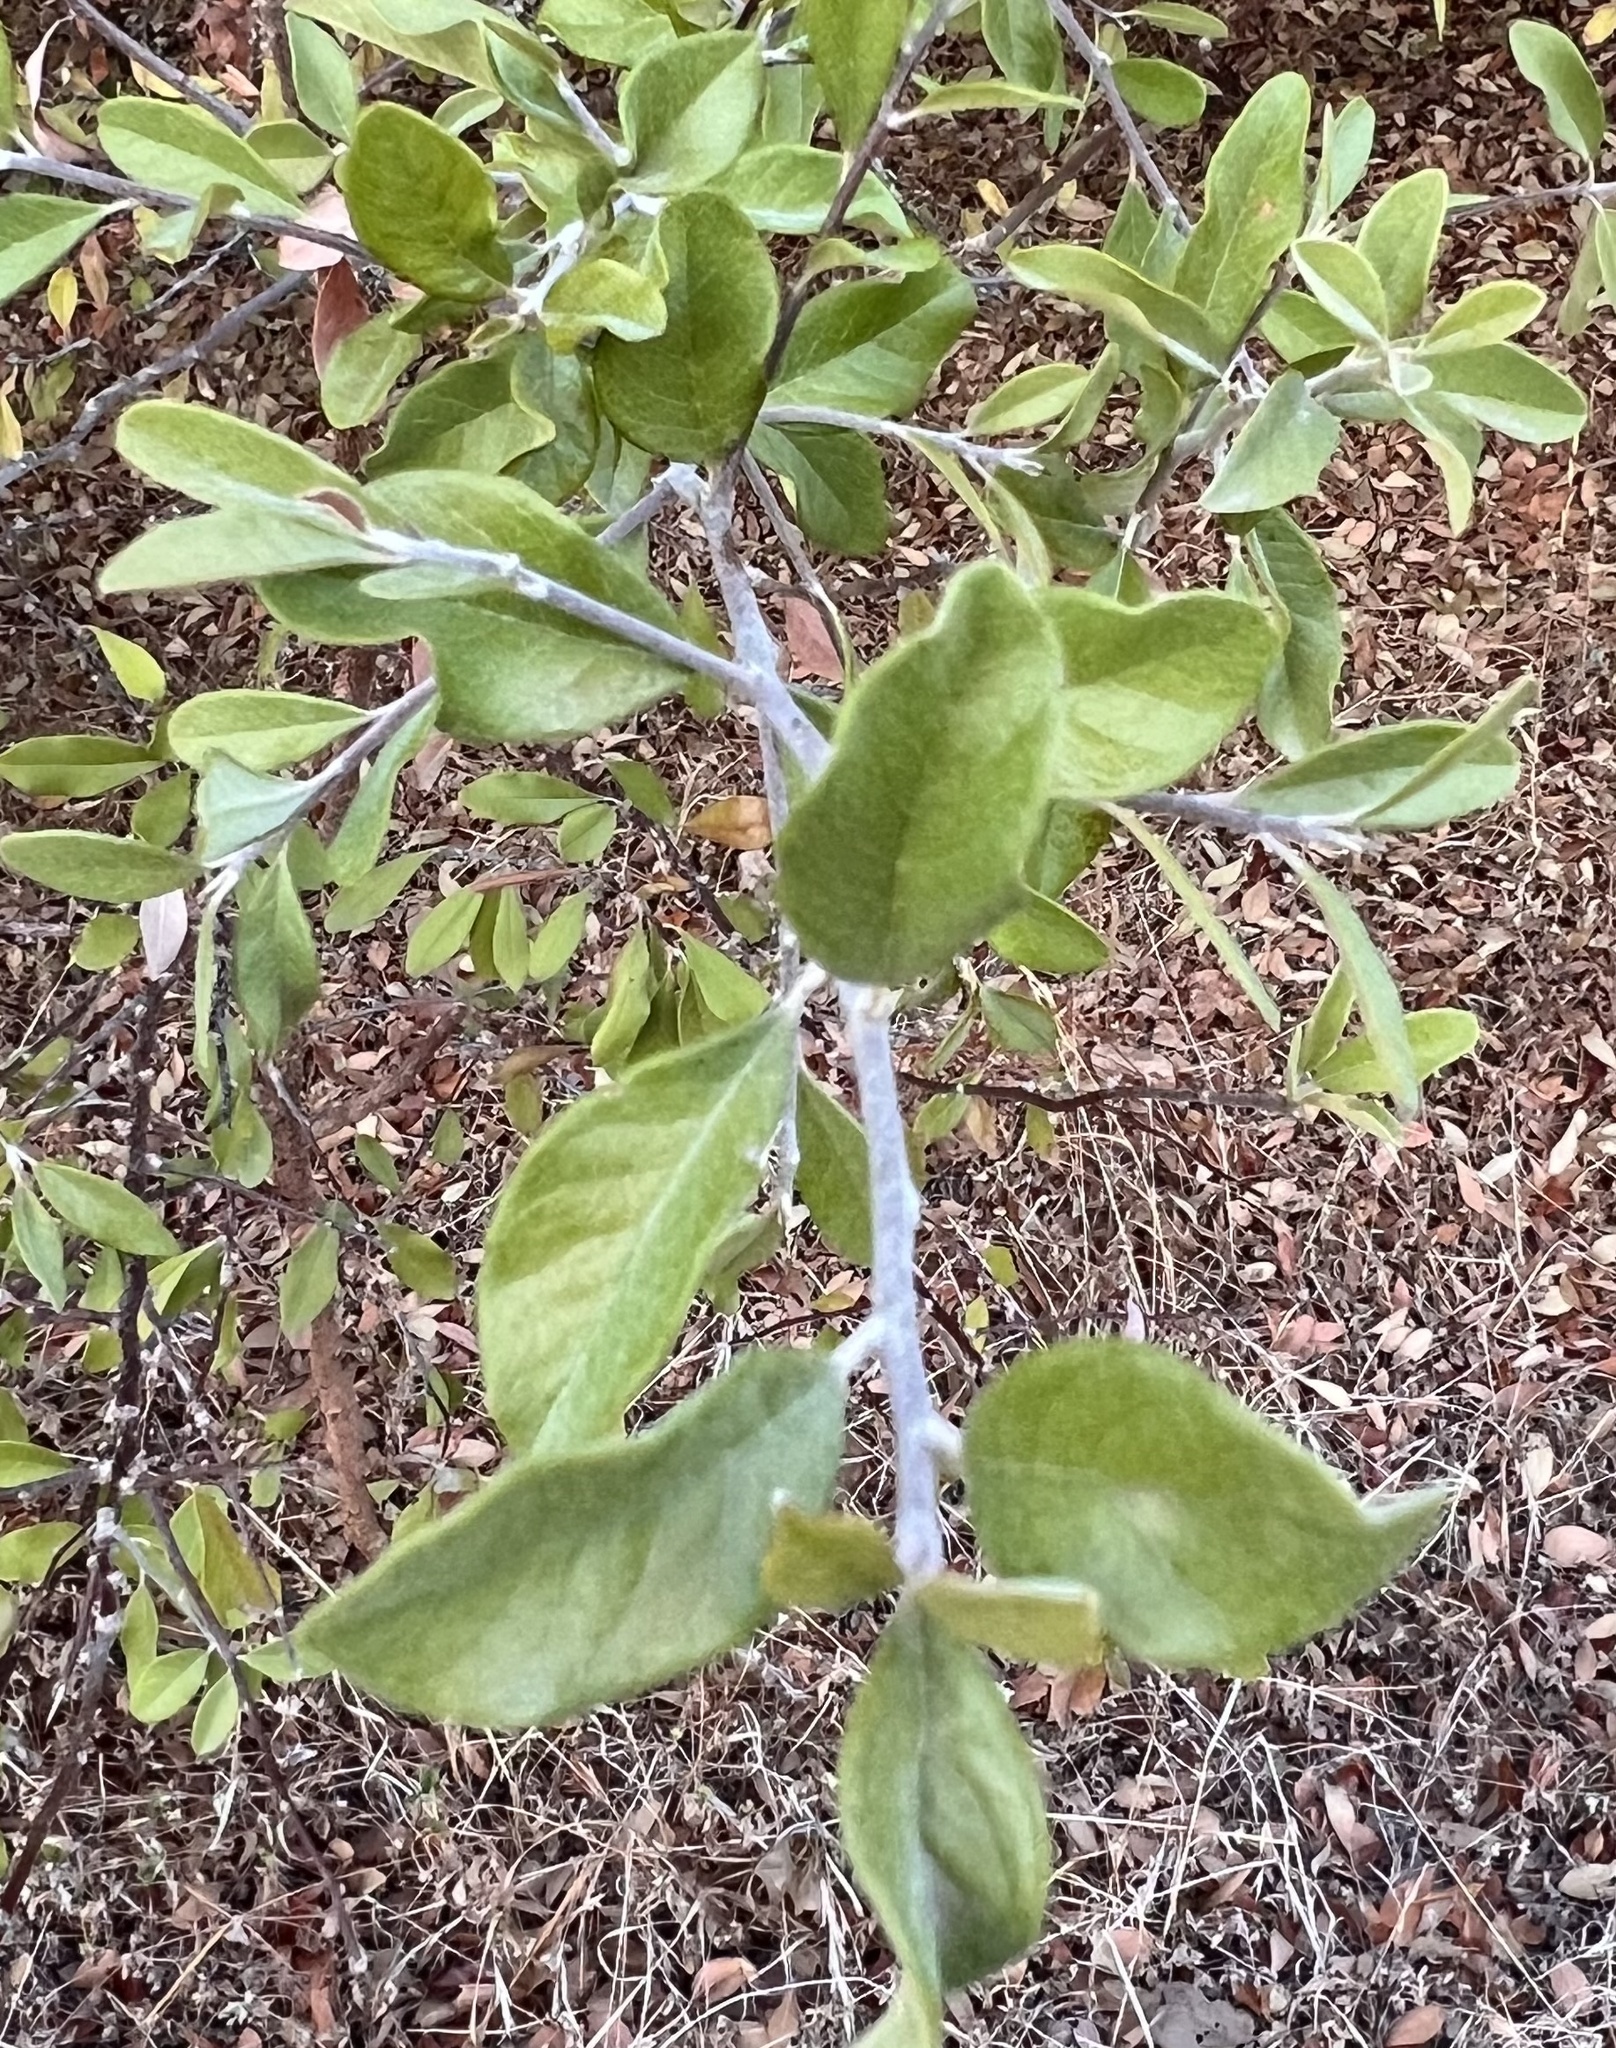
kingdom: Plantae
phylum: Tracheophyta
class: Magnoliopsida
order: Ericales
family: Sapotaceae
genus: Sideroxylon
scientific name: Sideroxylon lanuginosum
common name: Chittamwood
